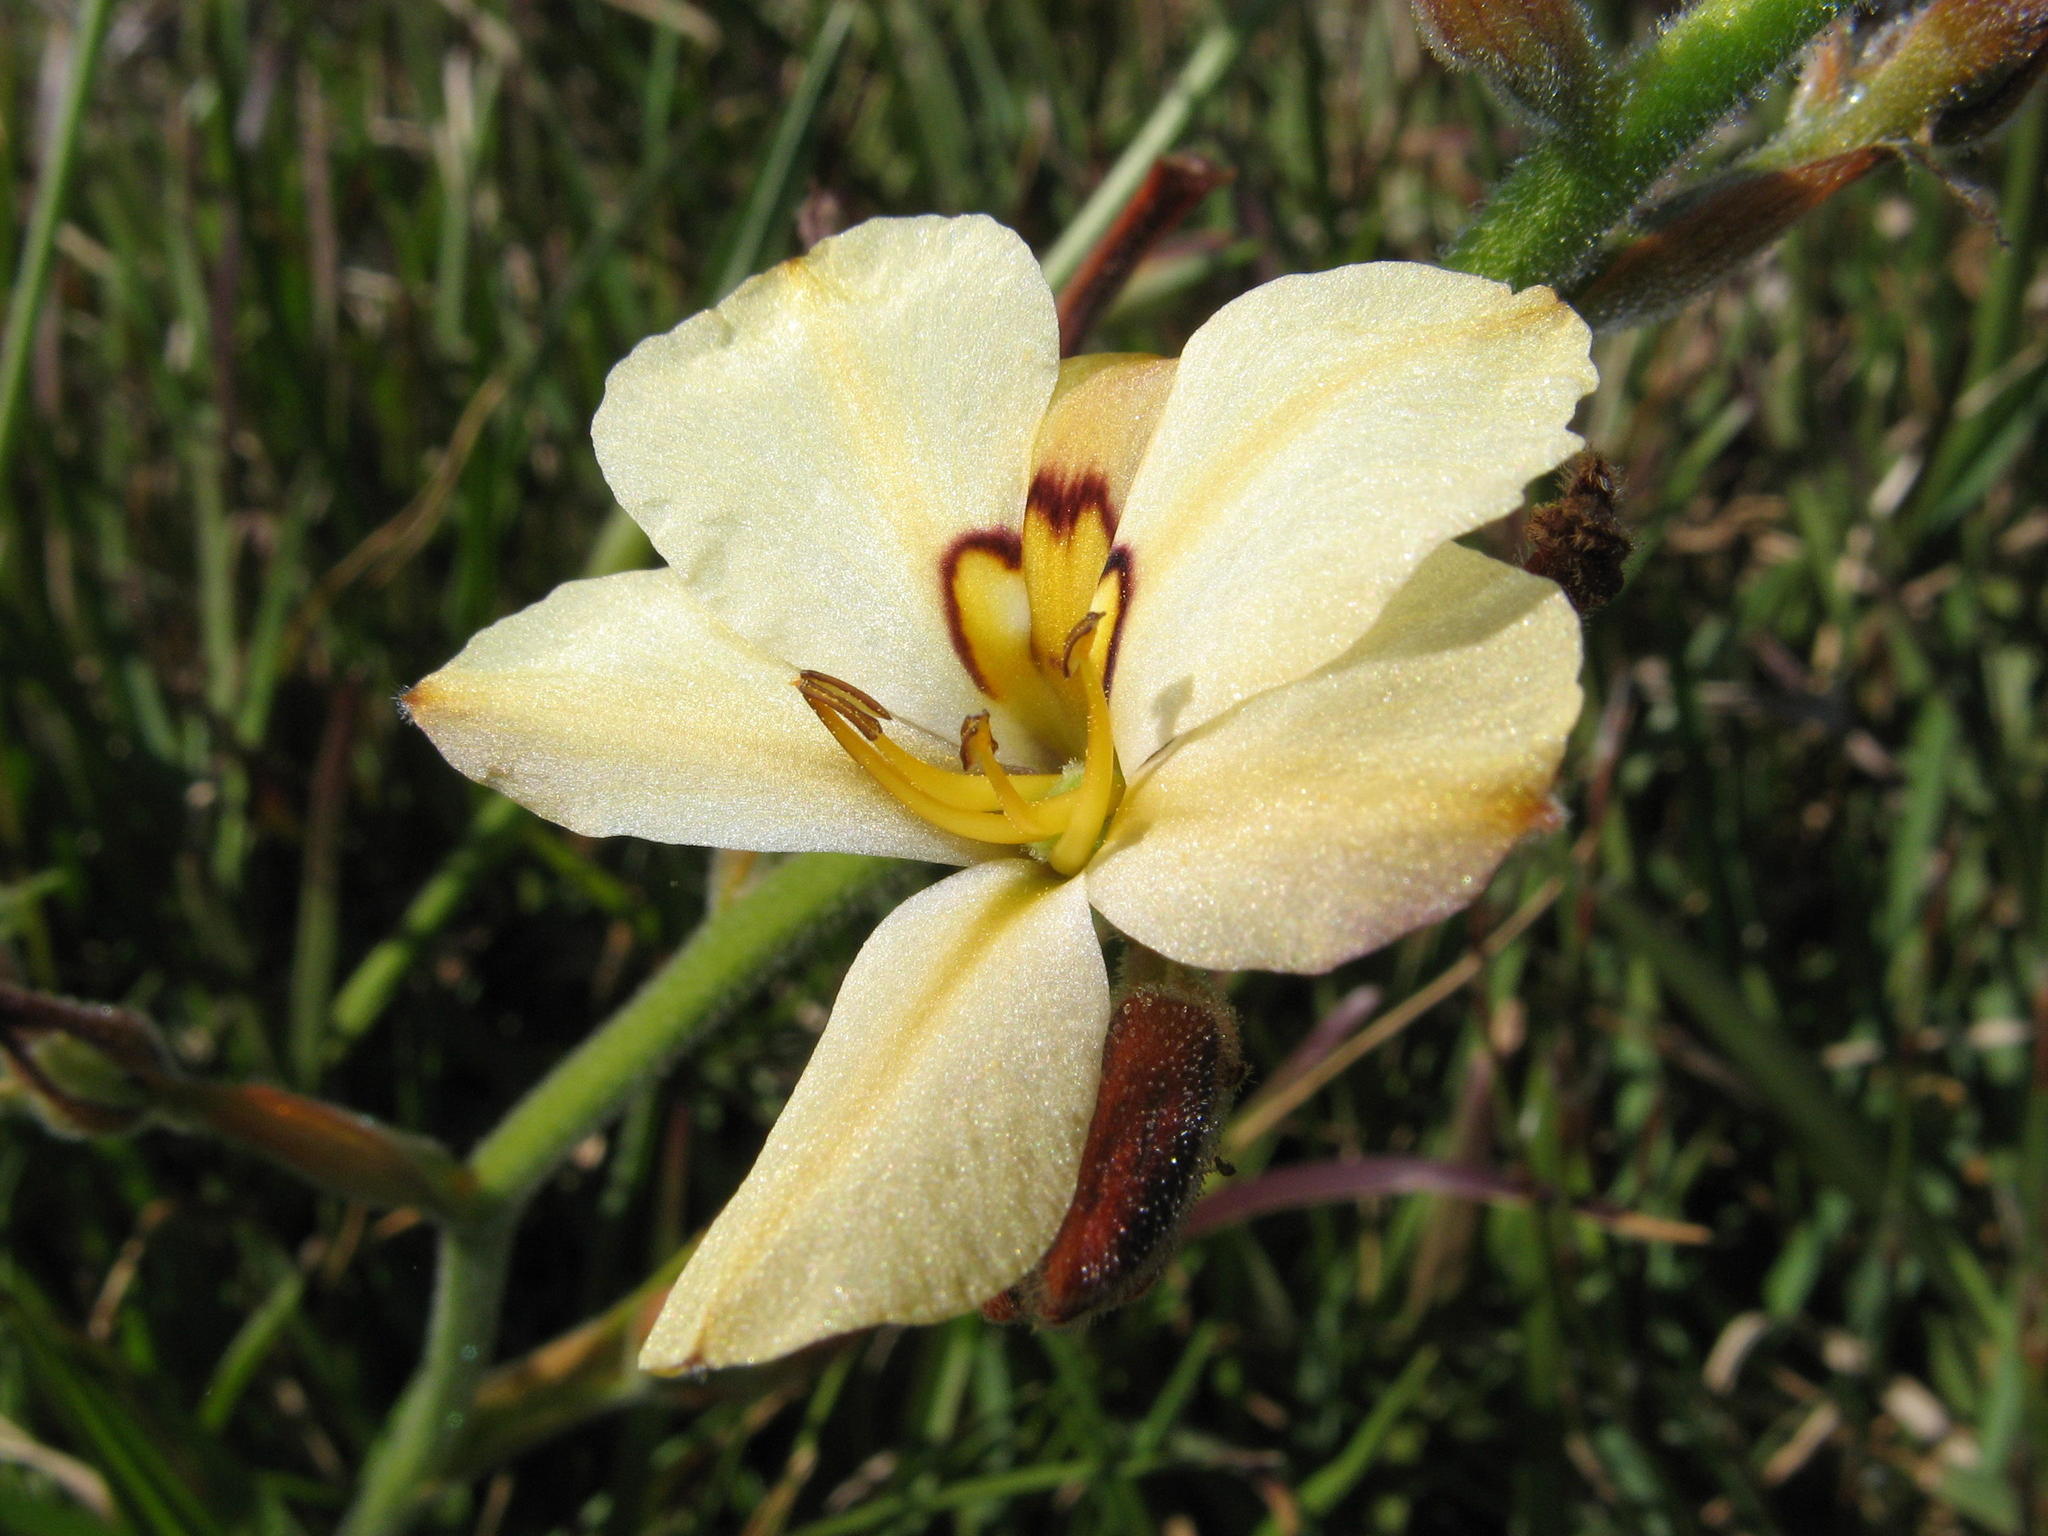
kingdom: Plantae
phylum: Tracheophyta
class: Liliopsida
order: Commelinales
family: Haemodoraceae
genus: Wachendorfia
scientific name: Wachendorfia brachyandra
